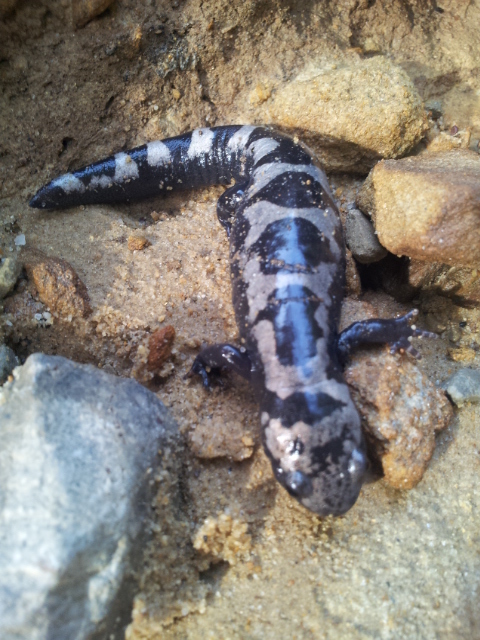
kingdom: Animalia
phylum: Chordata
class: Amphibia
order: Caudata
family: Ambystomatidae
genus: Ambystoma
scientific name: Ambystoma opacum
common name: Marbled salamander
